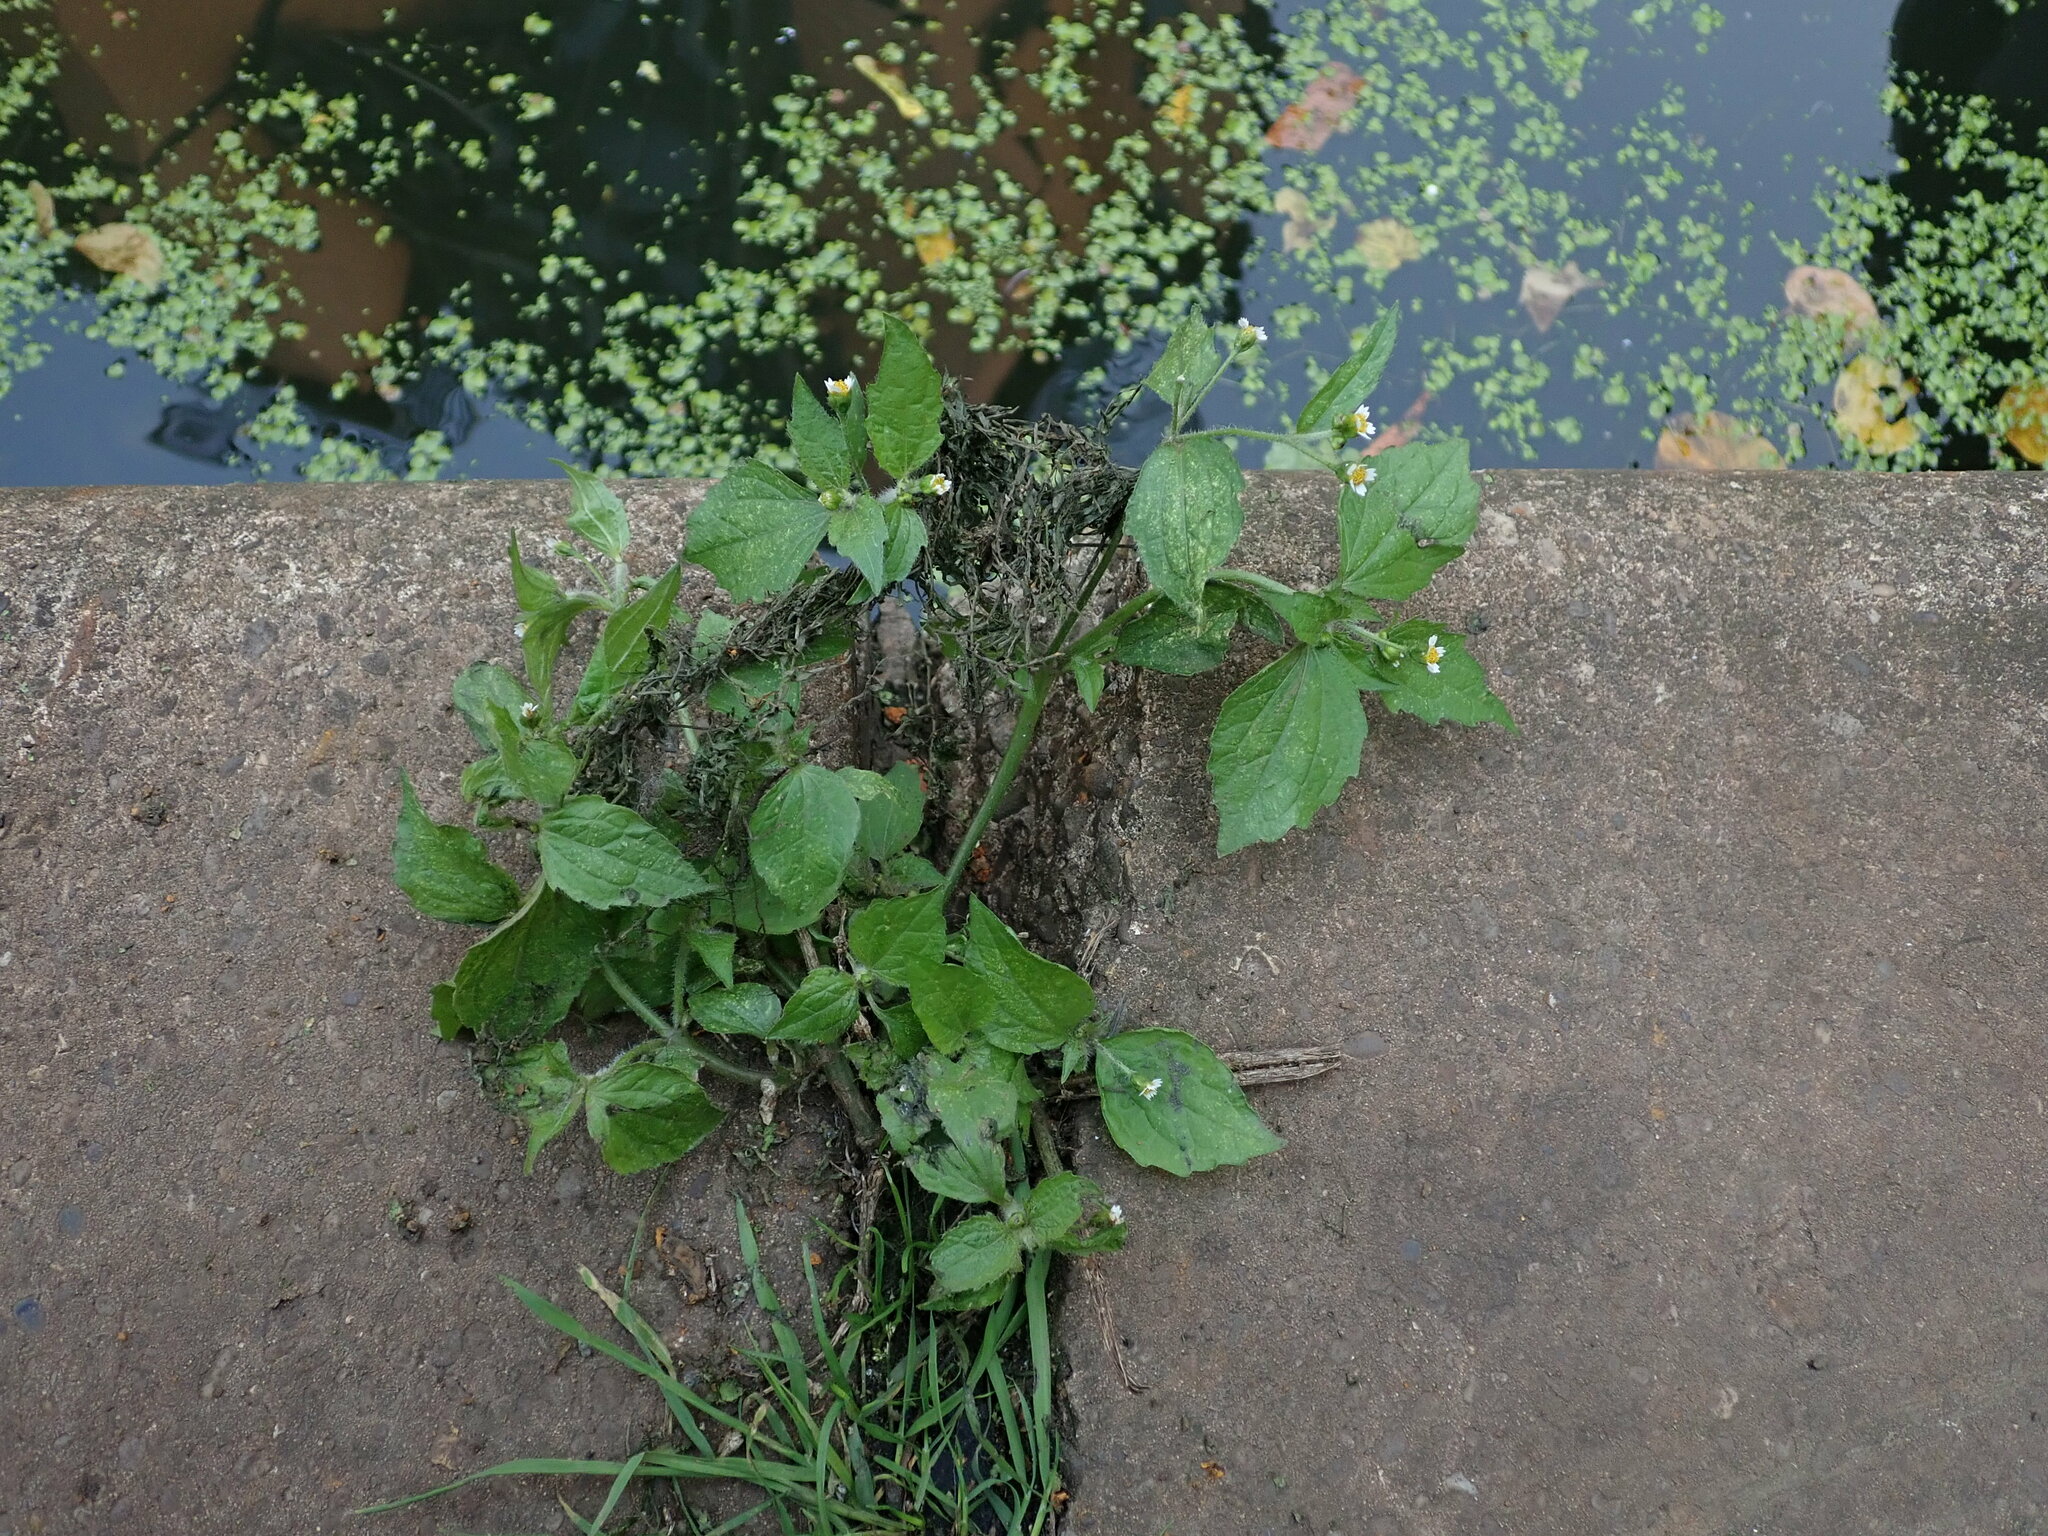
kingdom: Plantae
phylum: Tracheophyta
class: Magnoliopsida
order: Asterales
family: Asteraceae
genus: Galinsoga
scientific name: Galinsoga quadriradiata
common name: Shaggy soldier
